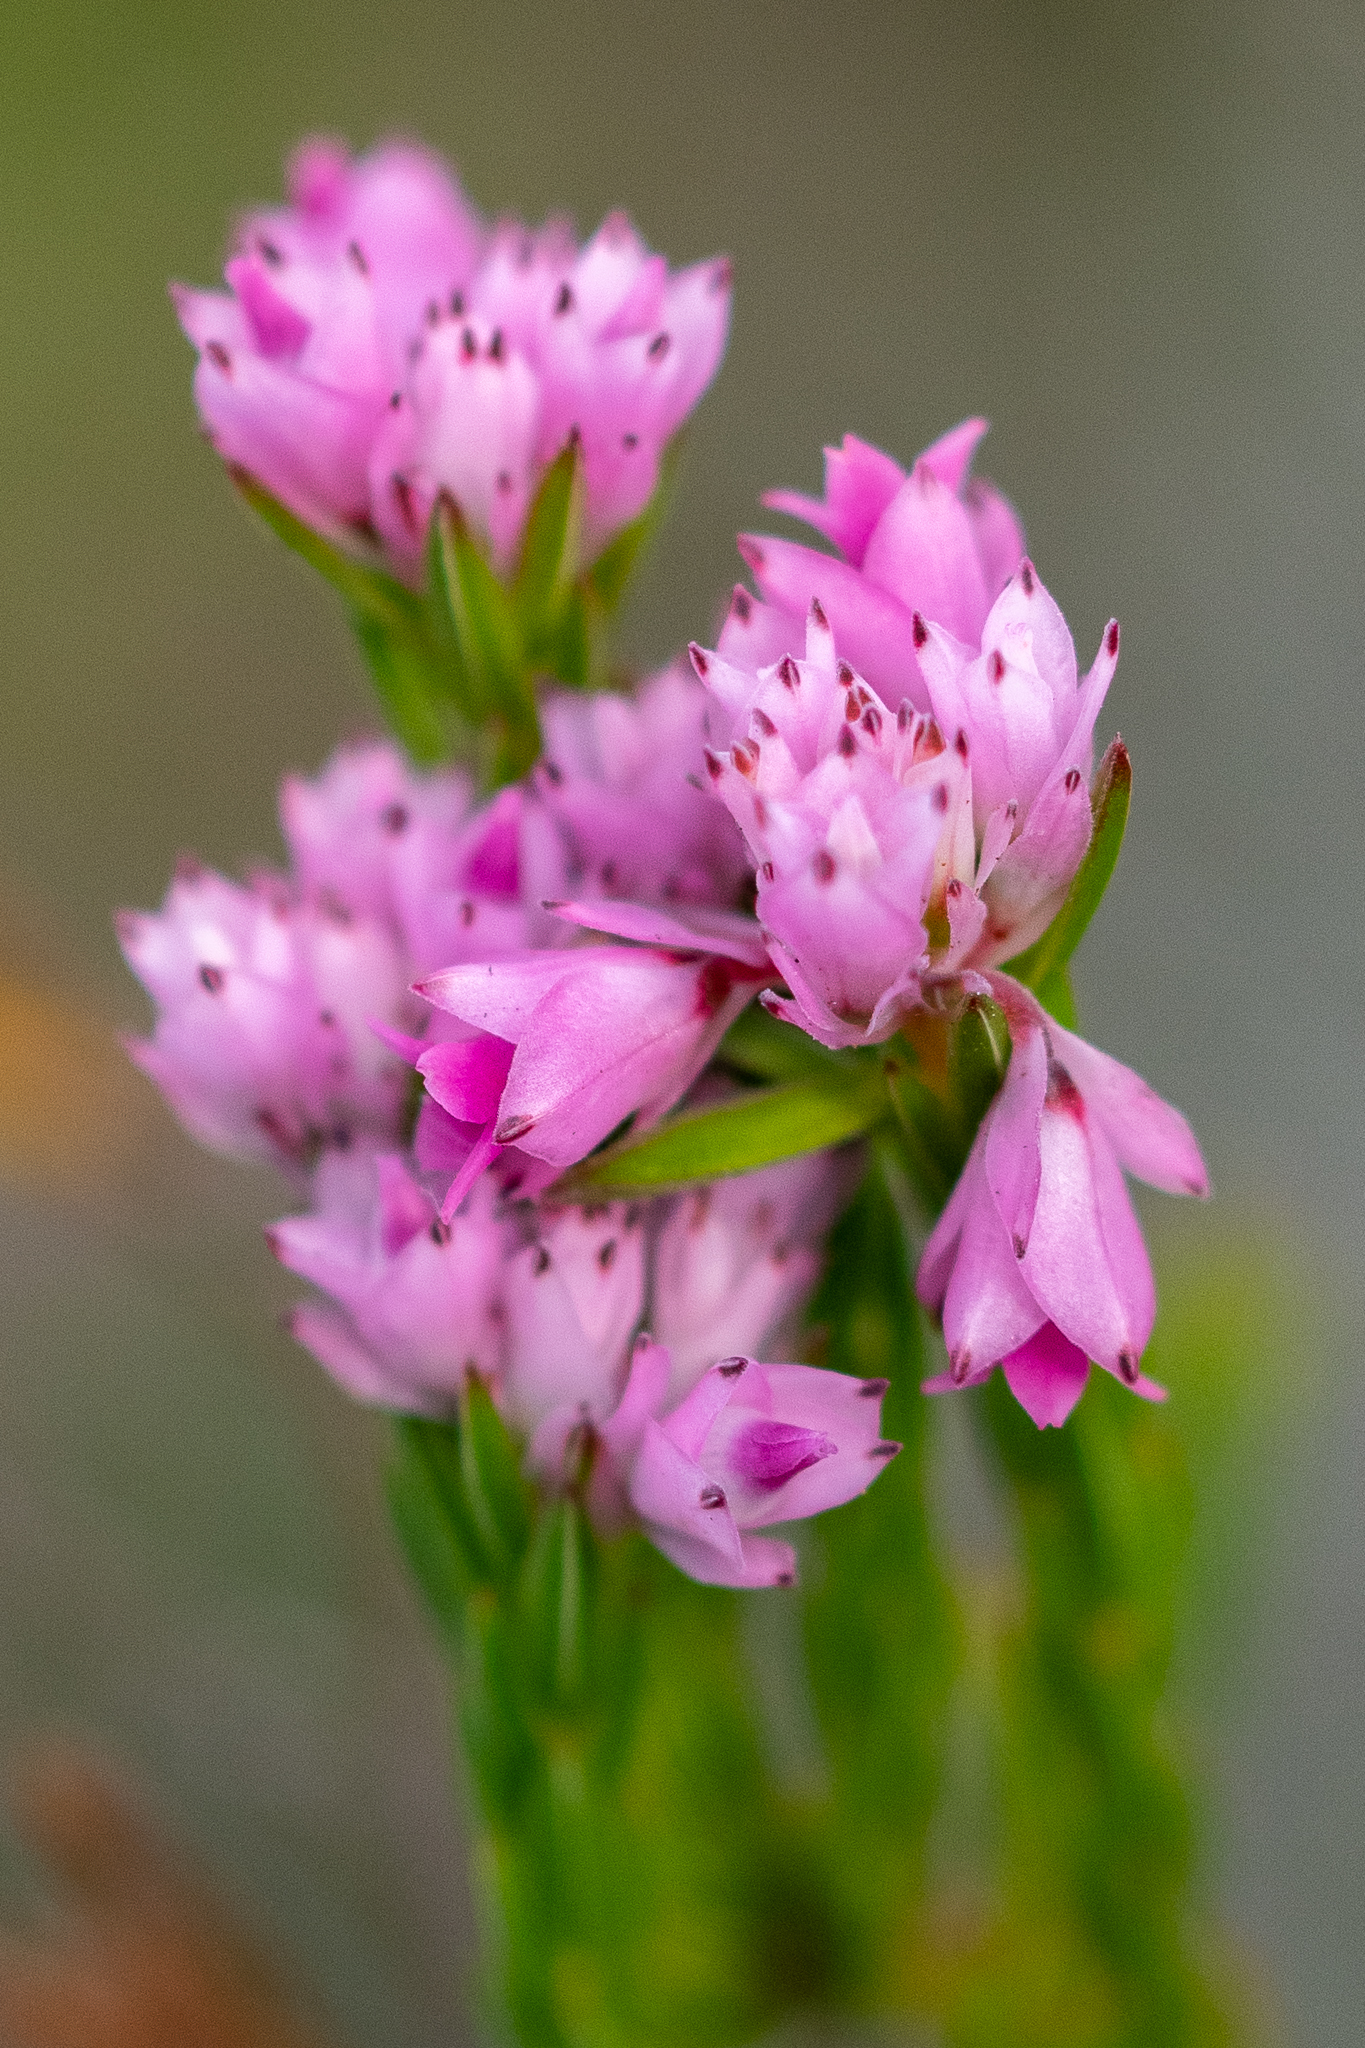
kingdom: Plantae
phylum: Tracheophyta
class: Magnoliopsida
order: Ericales
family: Ericaceae
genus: Erica
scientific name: Erica corifolia
